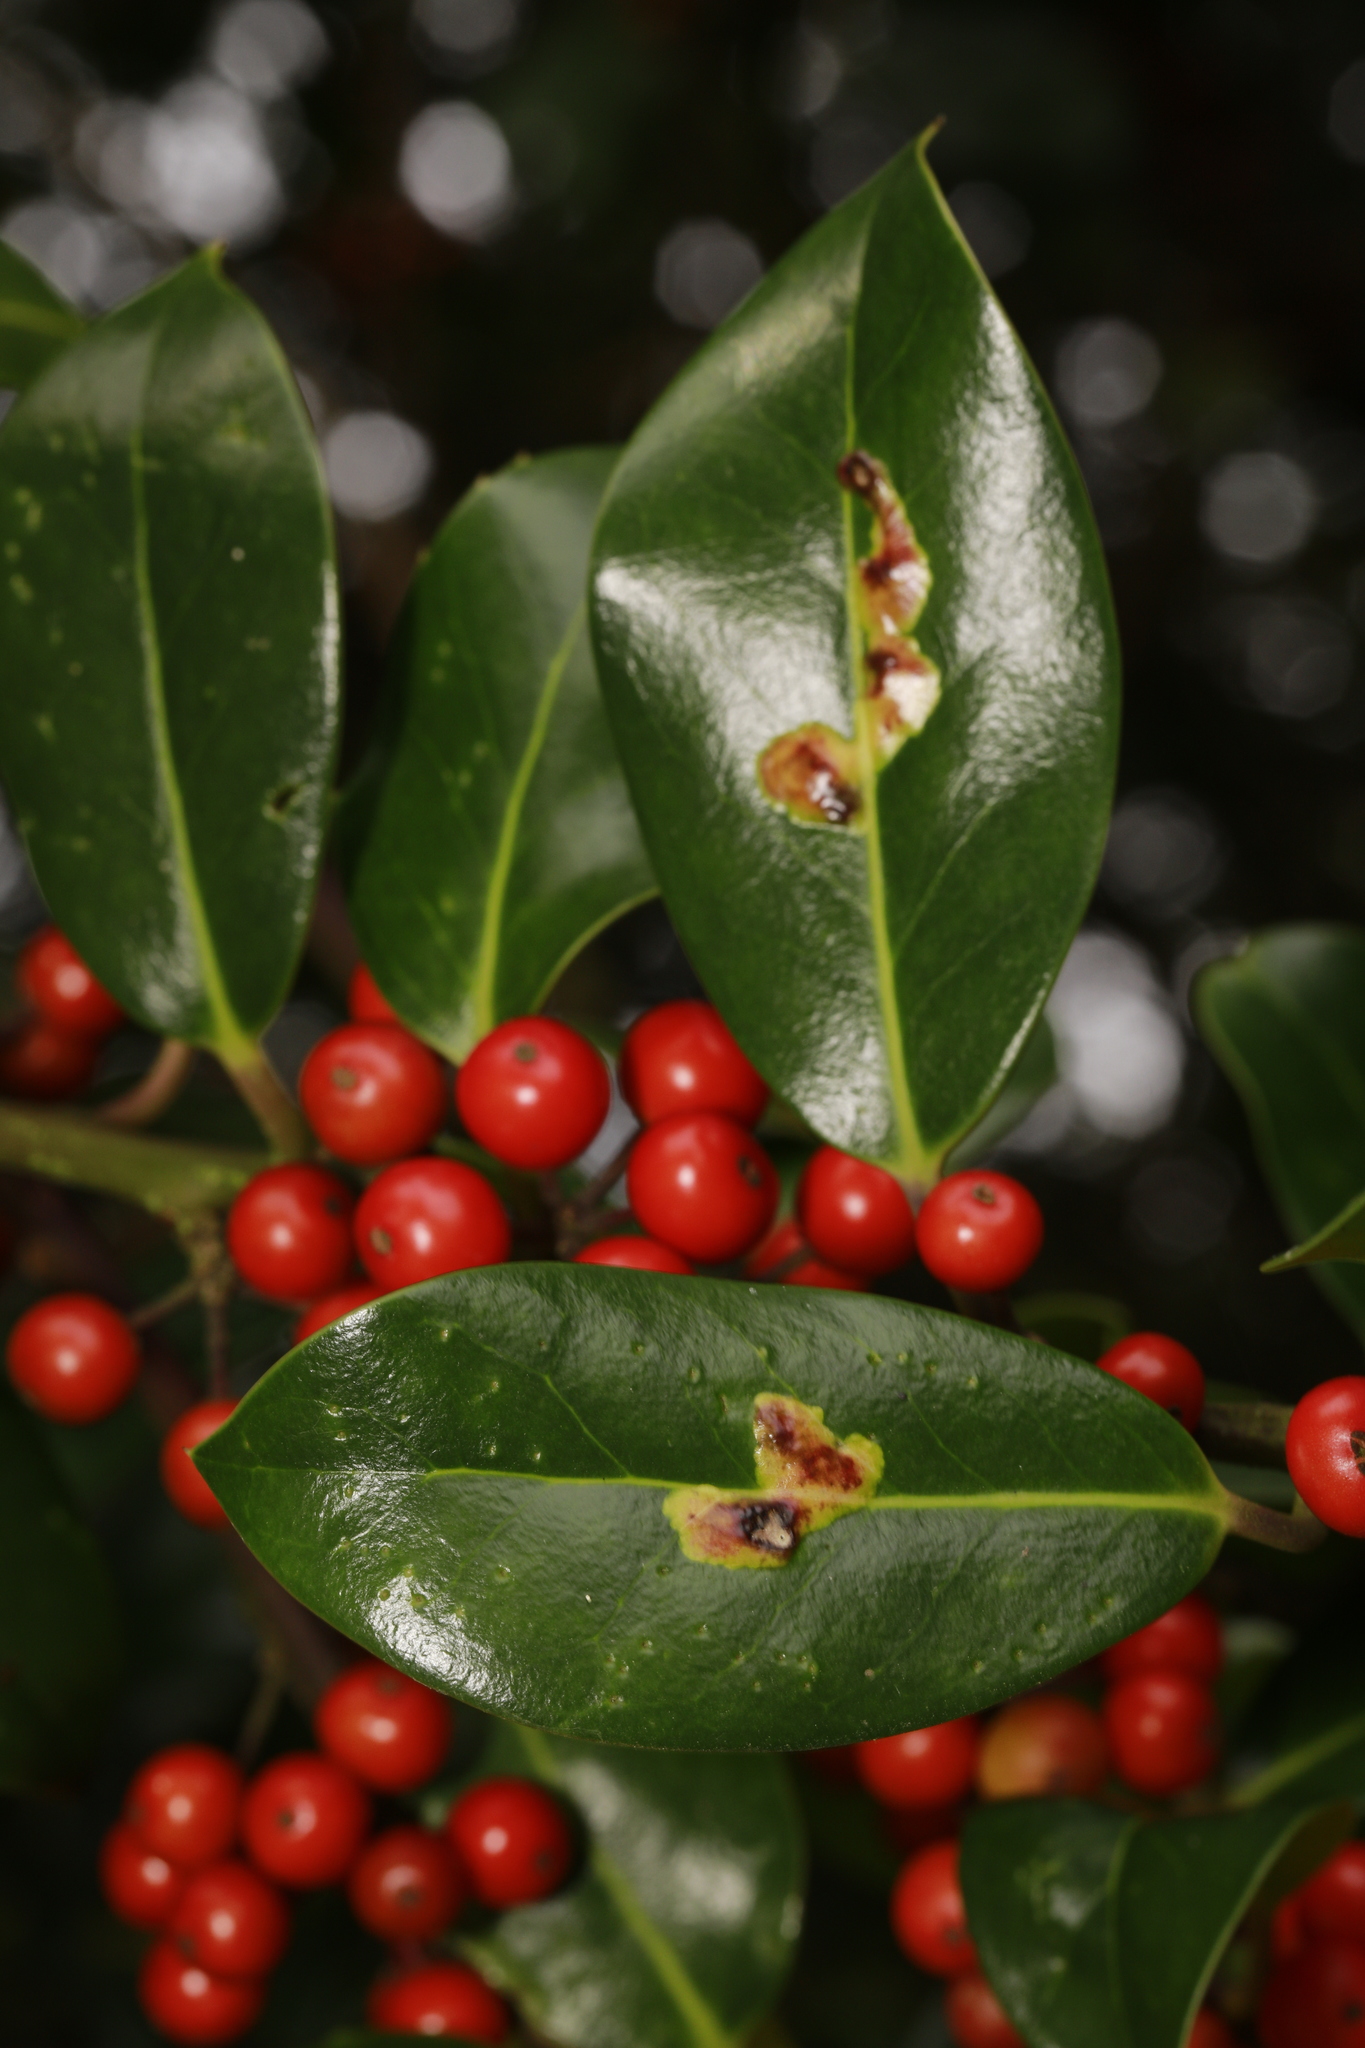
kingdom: Animalia
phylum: Arthropoda
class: Insecta
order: Diptera
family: Agromyzidae
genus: Phytomyza
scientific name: Phytomyza ilicis
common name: Holly leafminer
